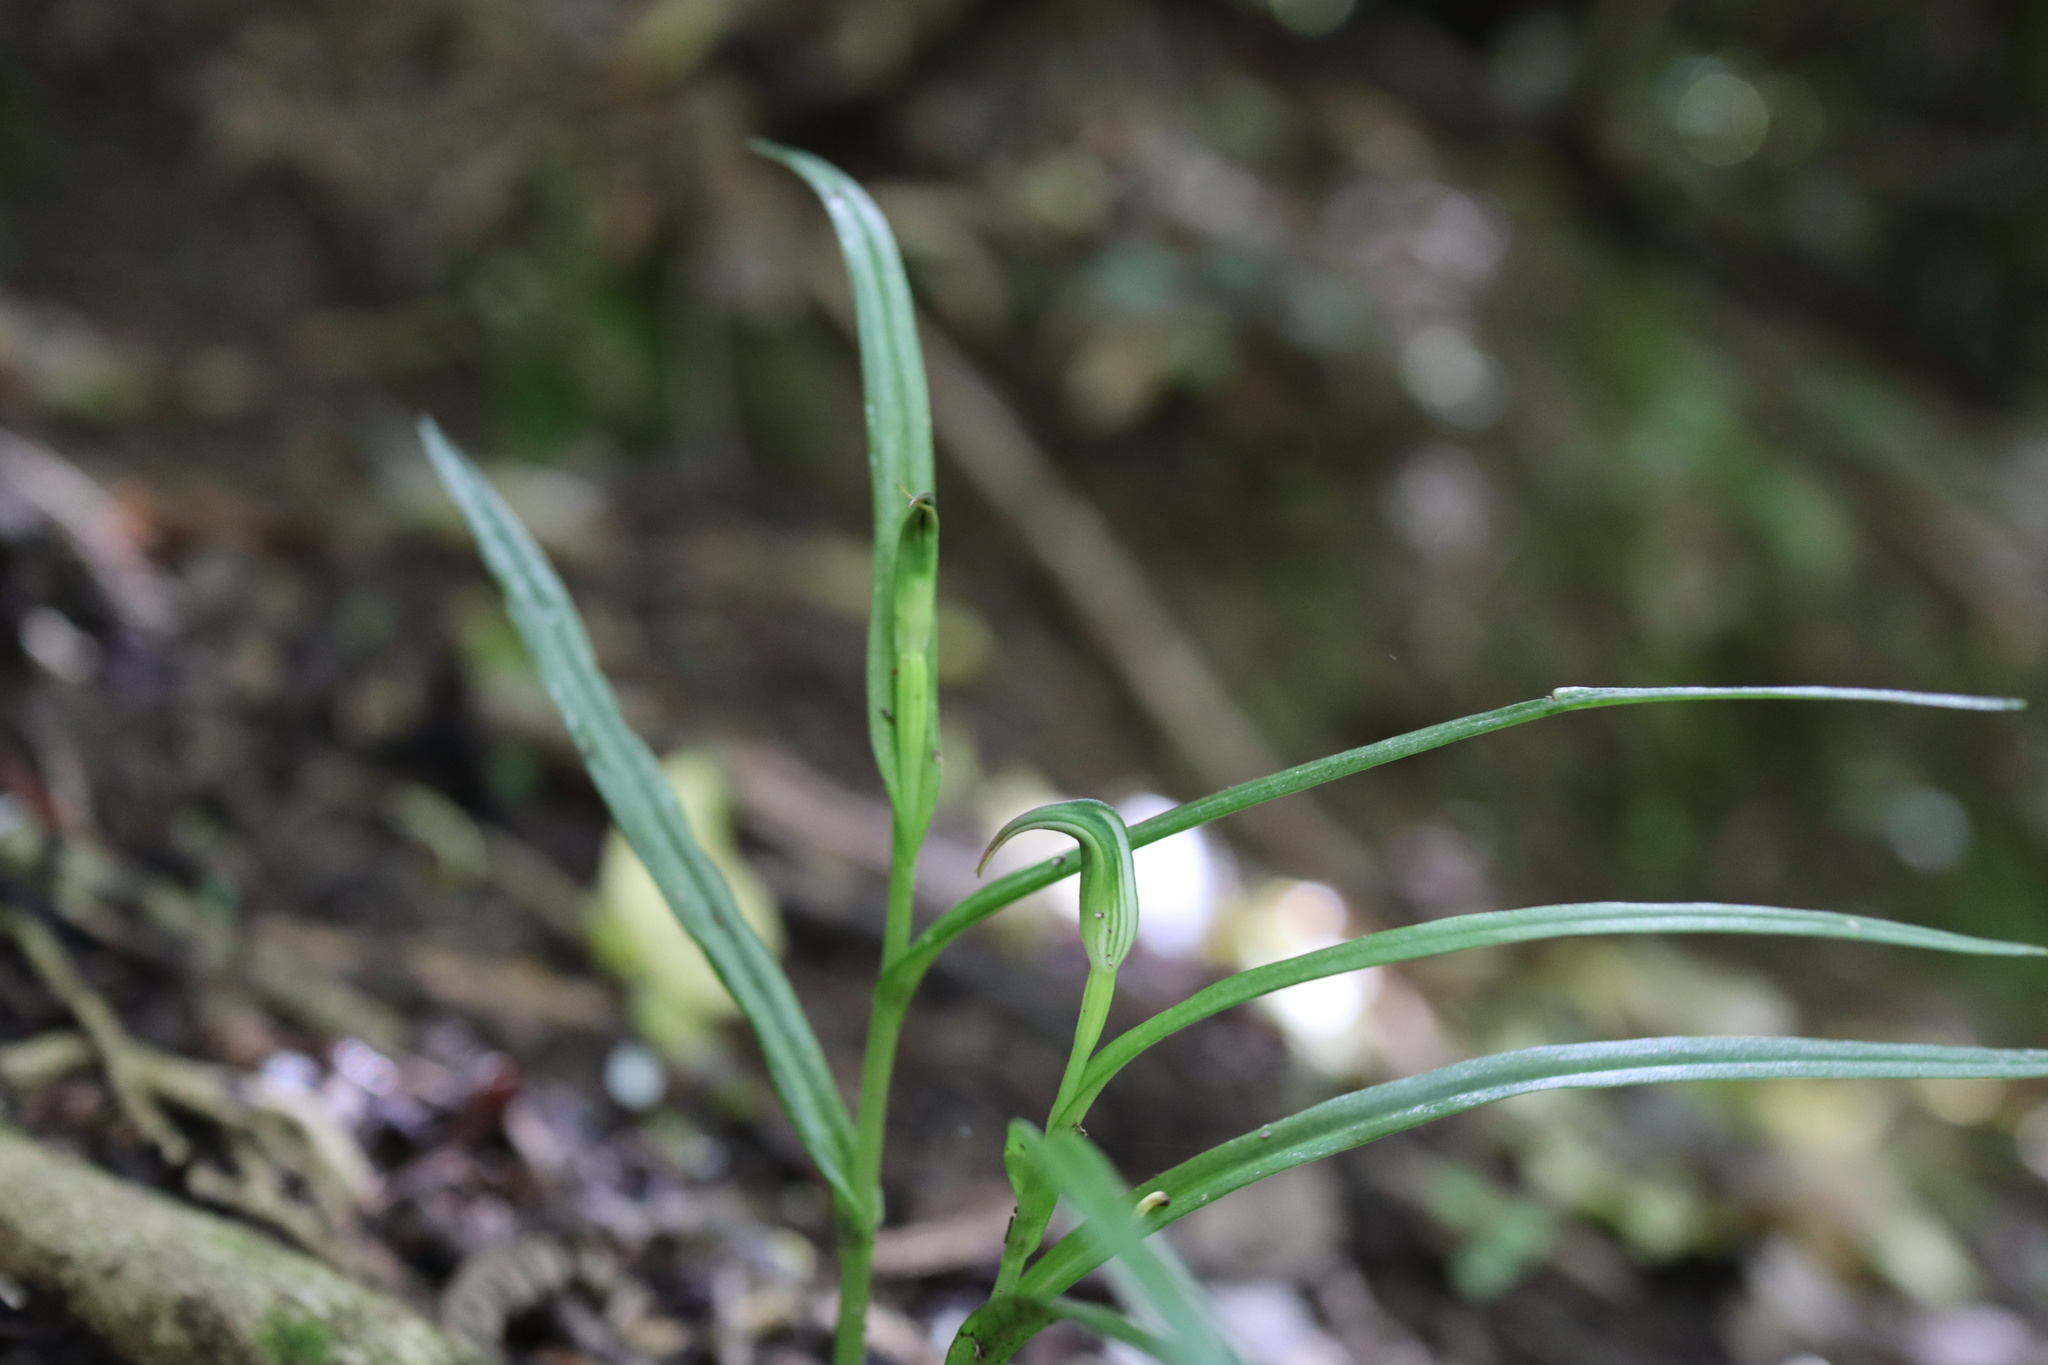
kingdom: Plantae
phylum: Tracheophyta
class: Liliopsida
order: Asparagales
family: Orchidaceae
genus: Pterostylis
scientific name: Pterostylis graminea
